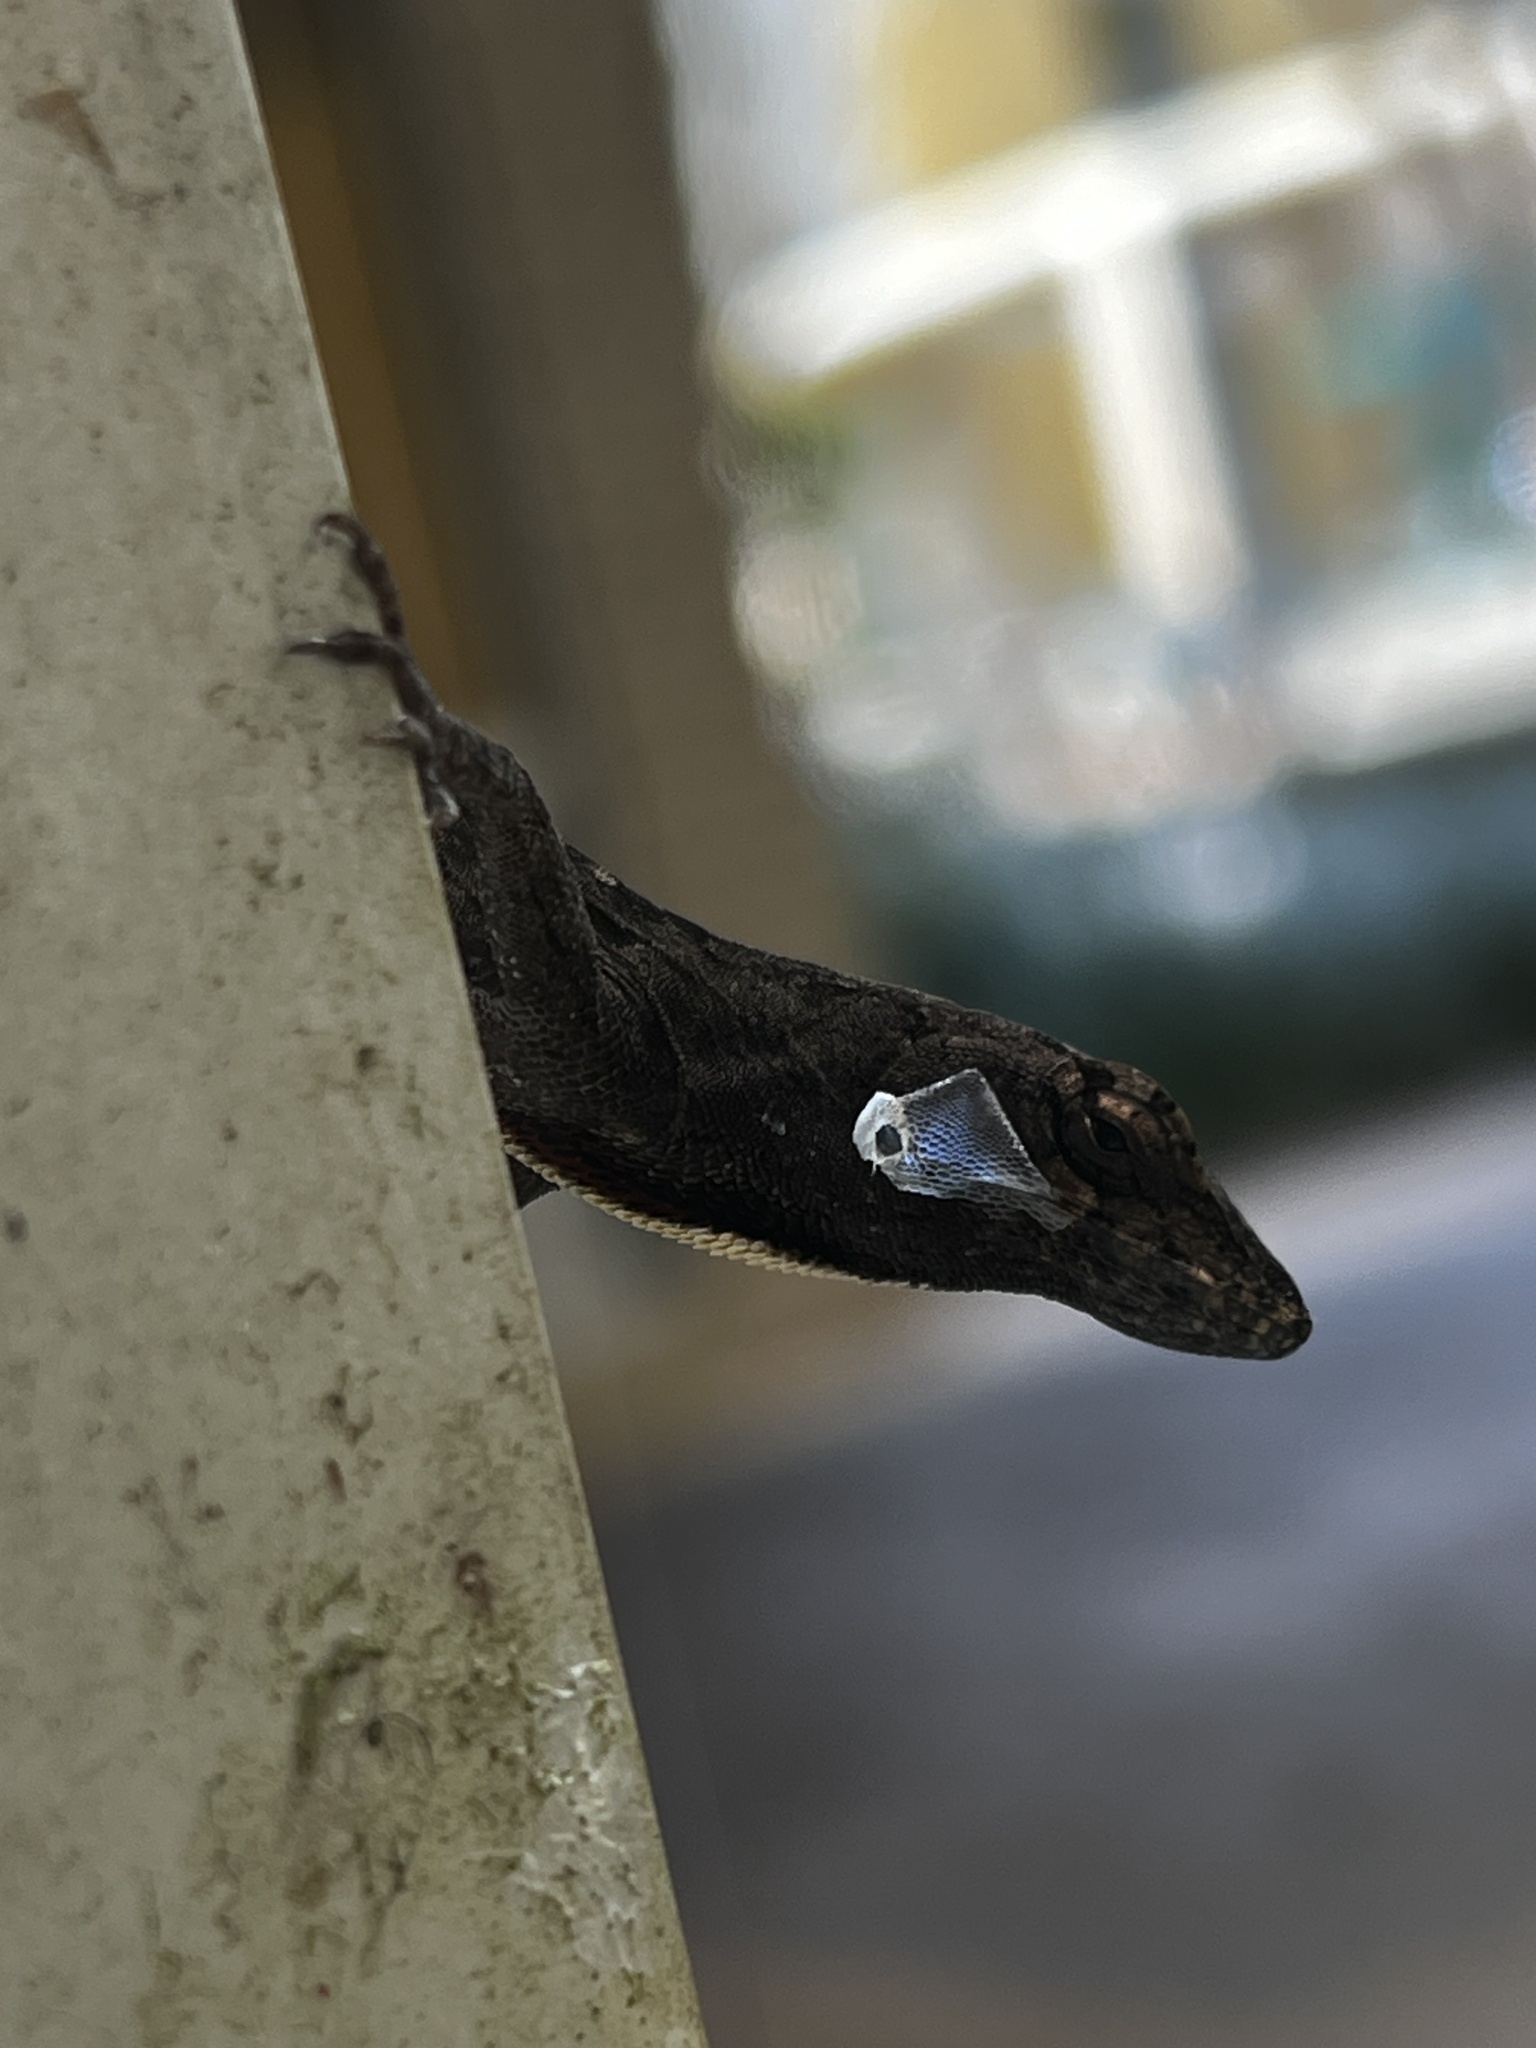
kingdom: Animalia
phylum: Chordata
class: Squamata
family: Dactyloidae
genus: Anolis
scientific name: Anolis sagrei
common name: Brown anole
